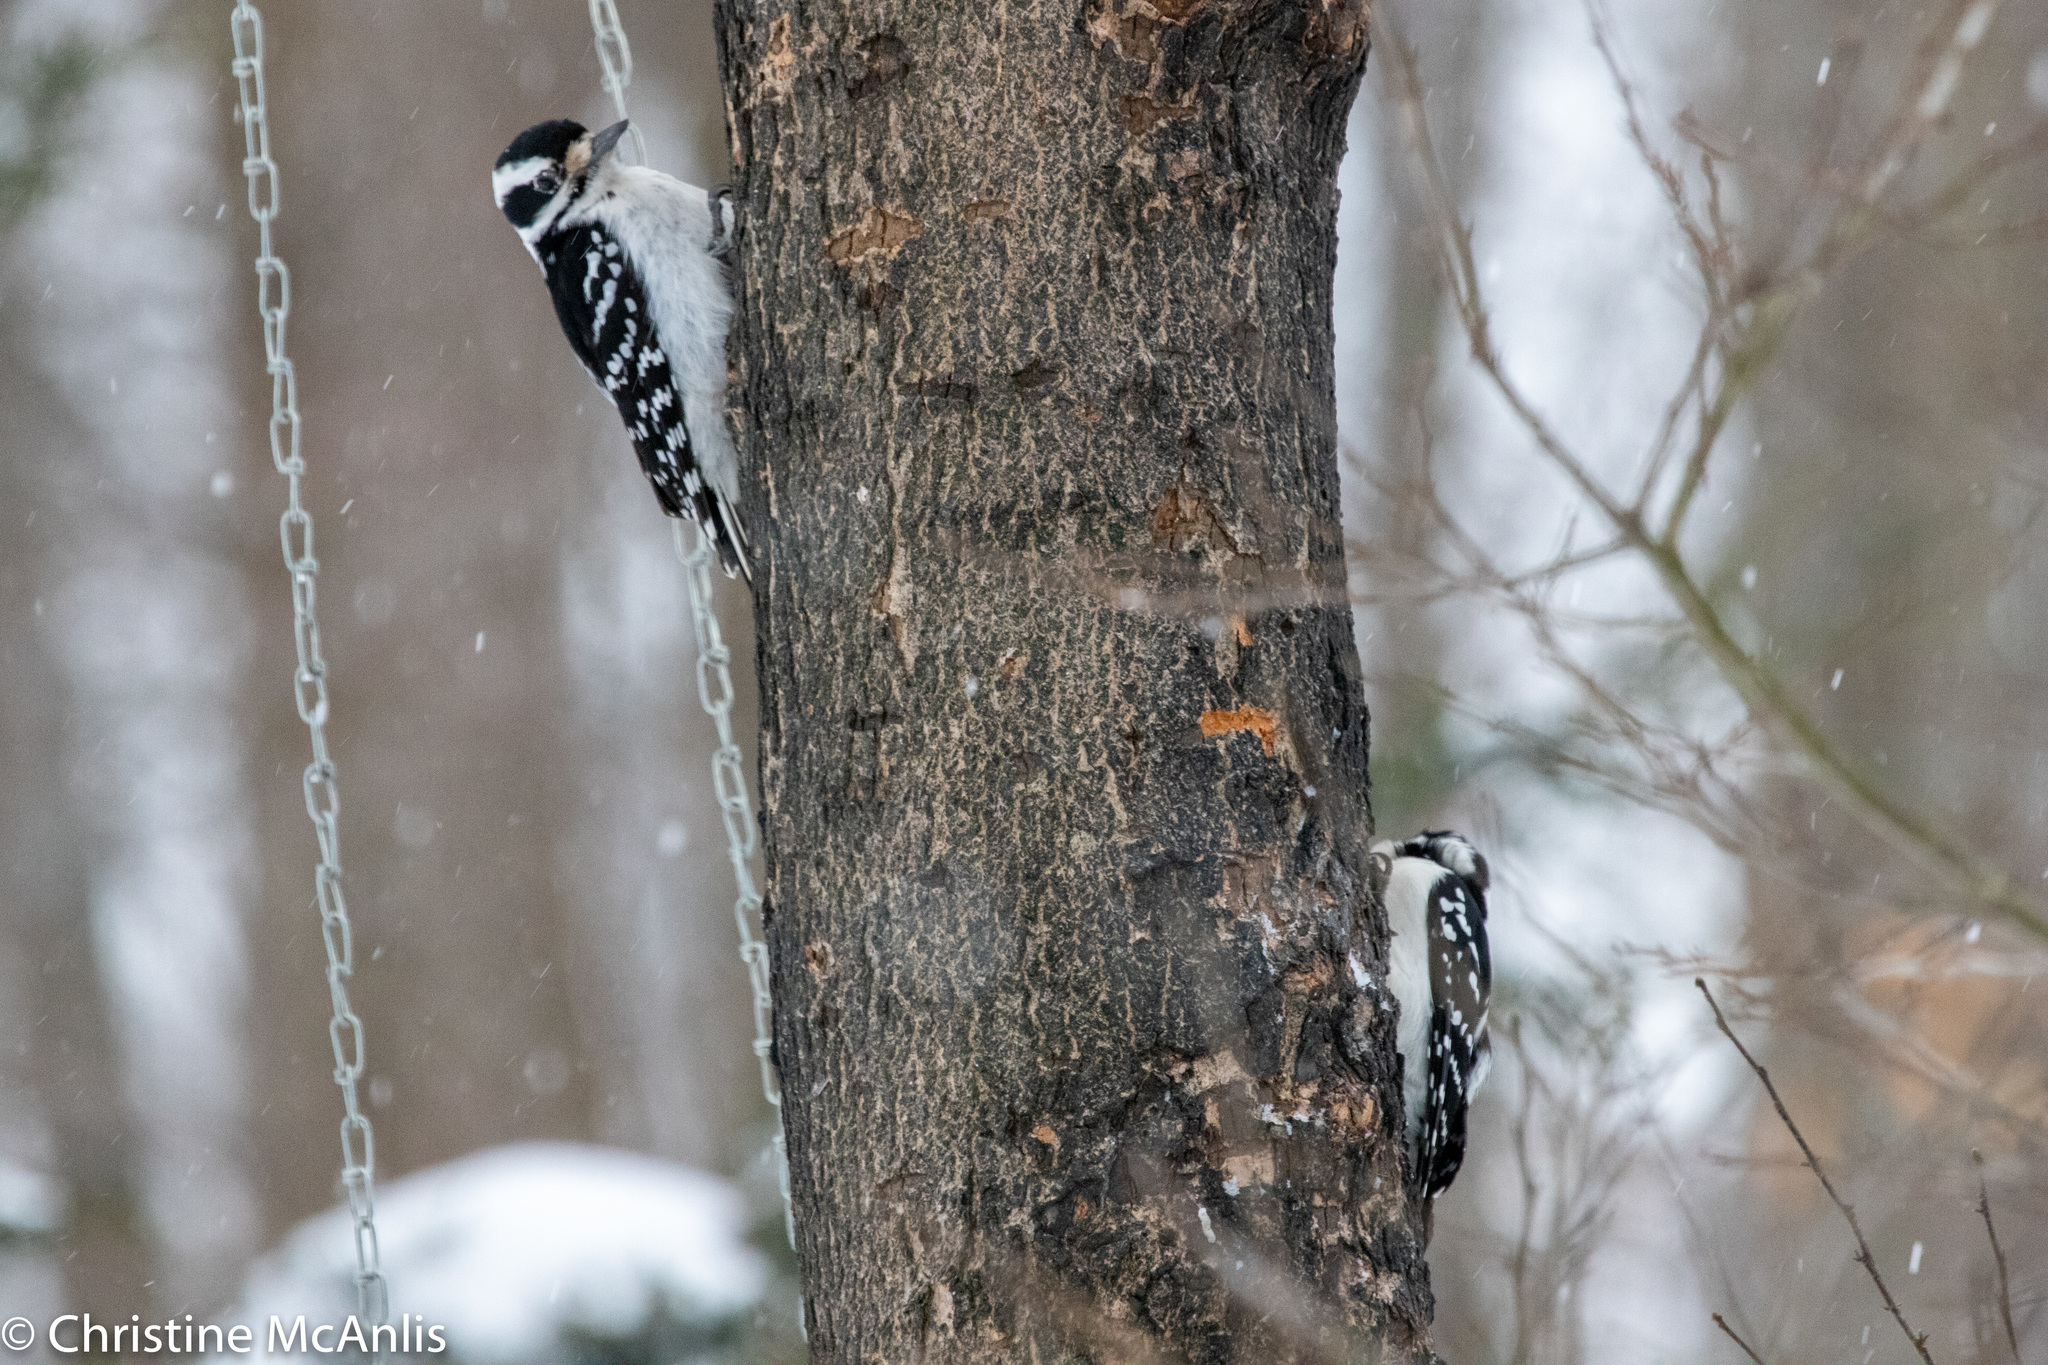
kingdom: Animalia
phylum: Chordata
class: Aves
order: Piciformes
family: Picidae
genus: Dryobates
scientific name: Dryobates pubescens
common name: Downy woodpecker
